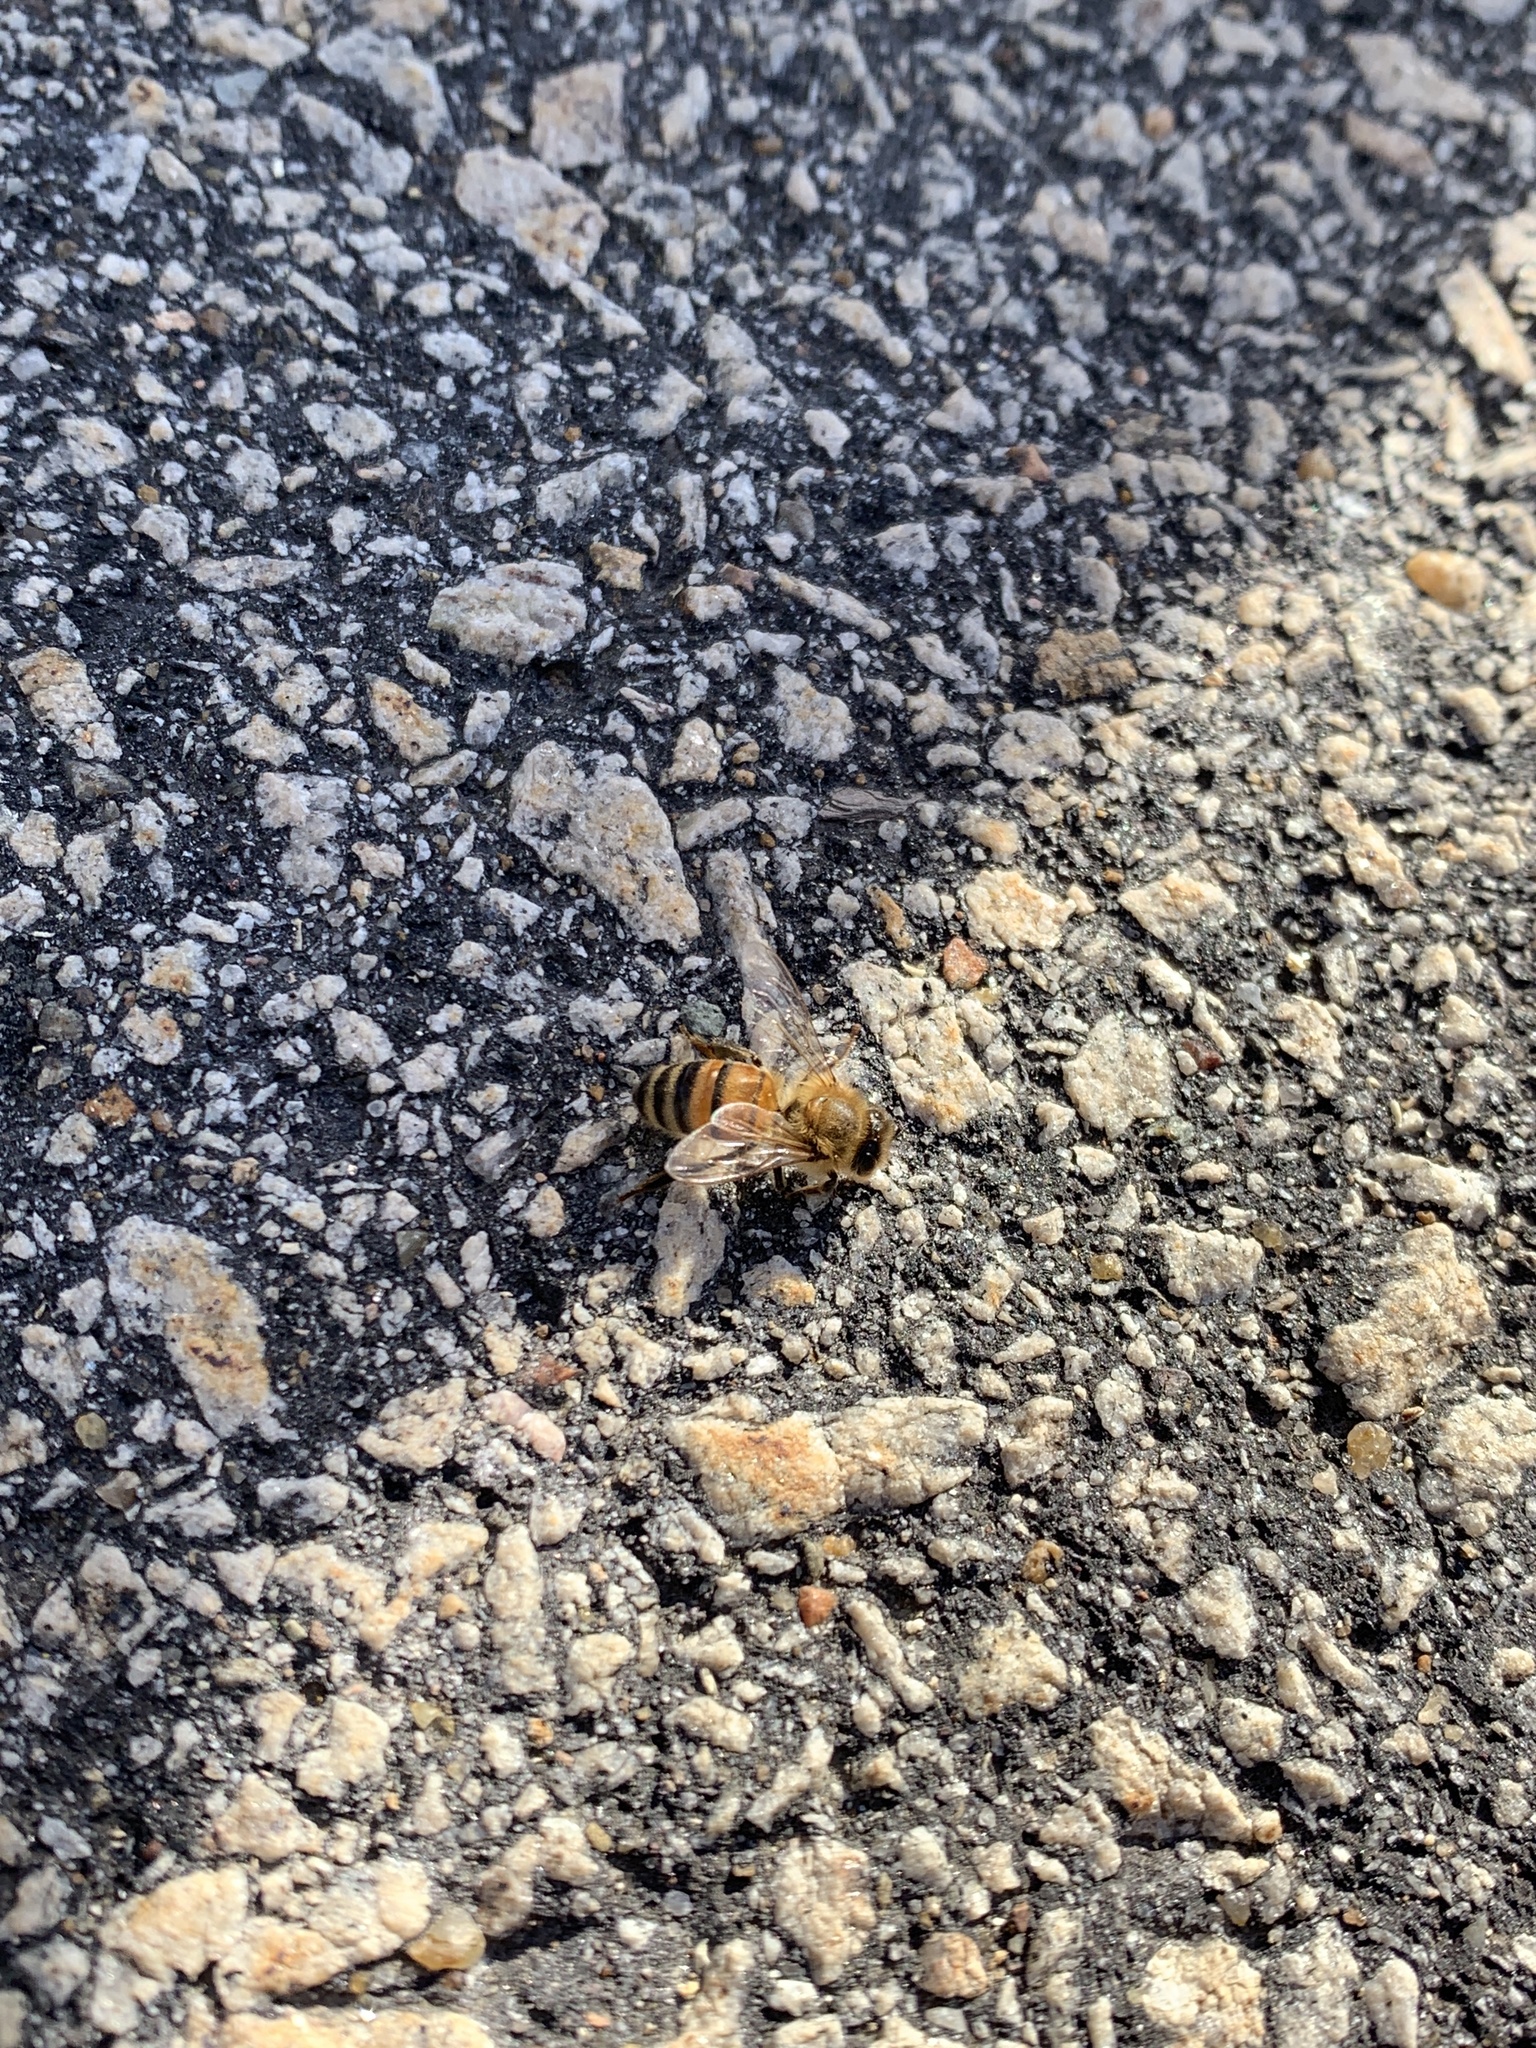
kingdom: Animalia
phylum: Arthropoda
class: Insecta
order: Hymenoptera
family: Apidae
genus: Apis
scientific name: Apis mellifera
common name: Honey bee
